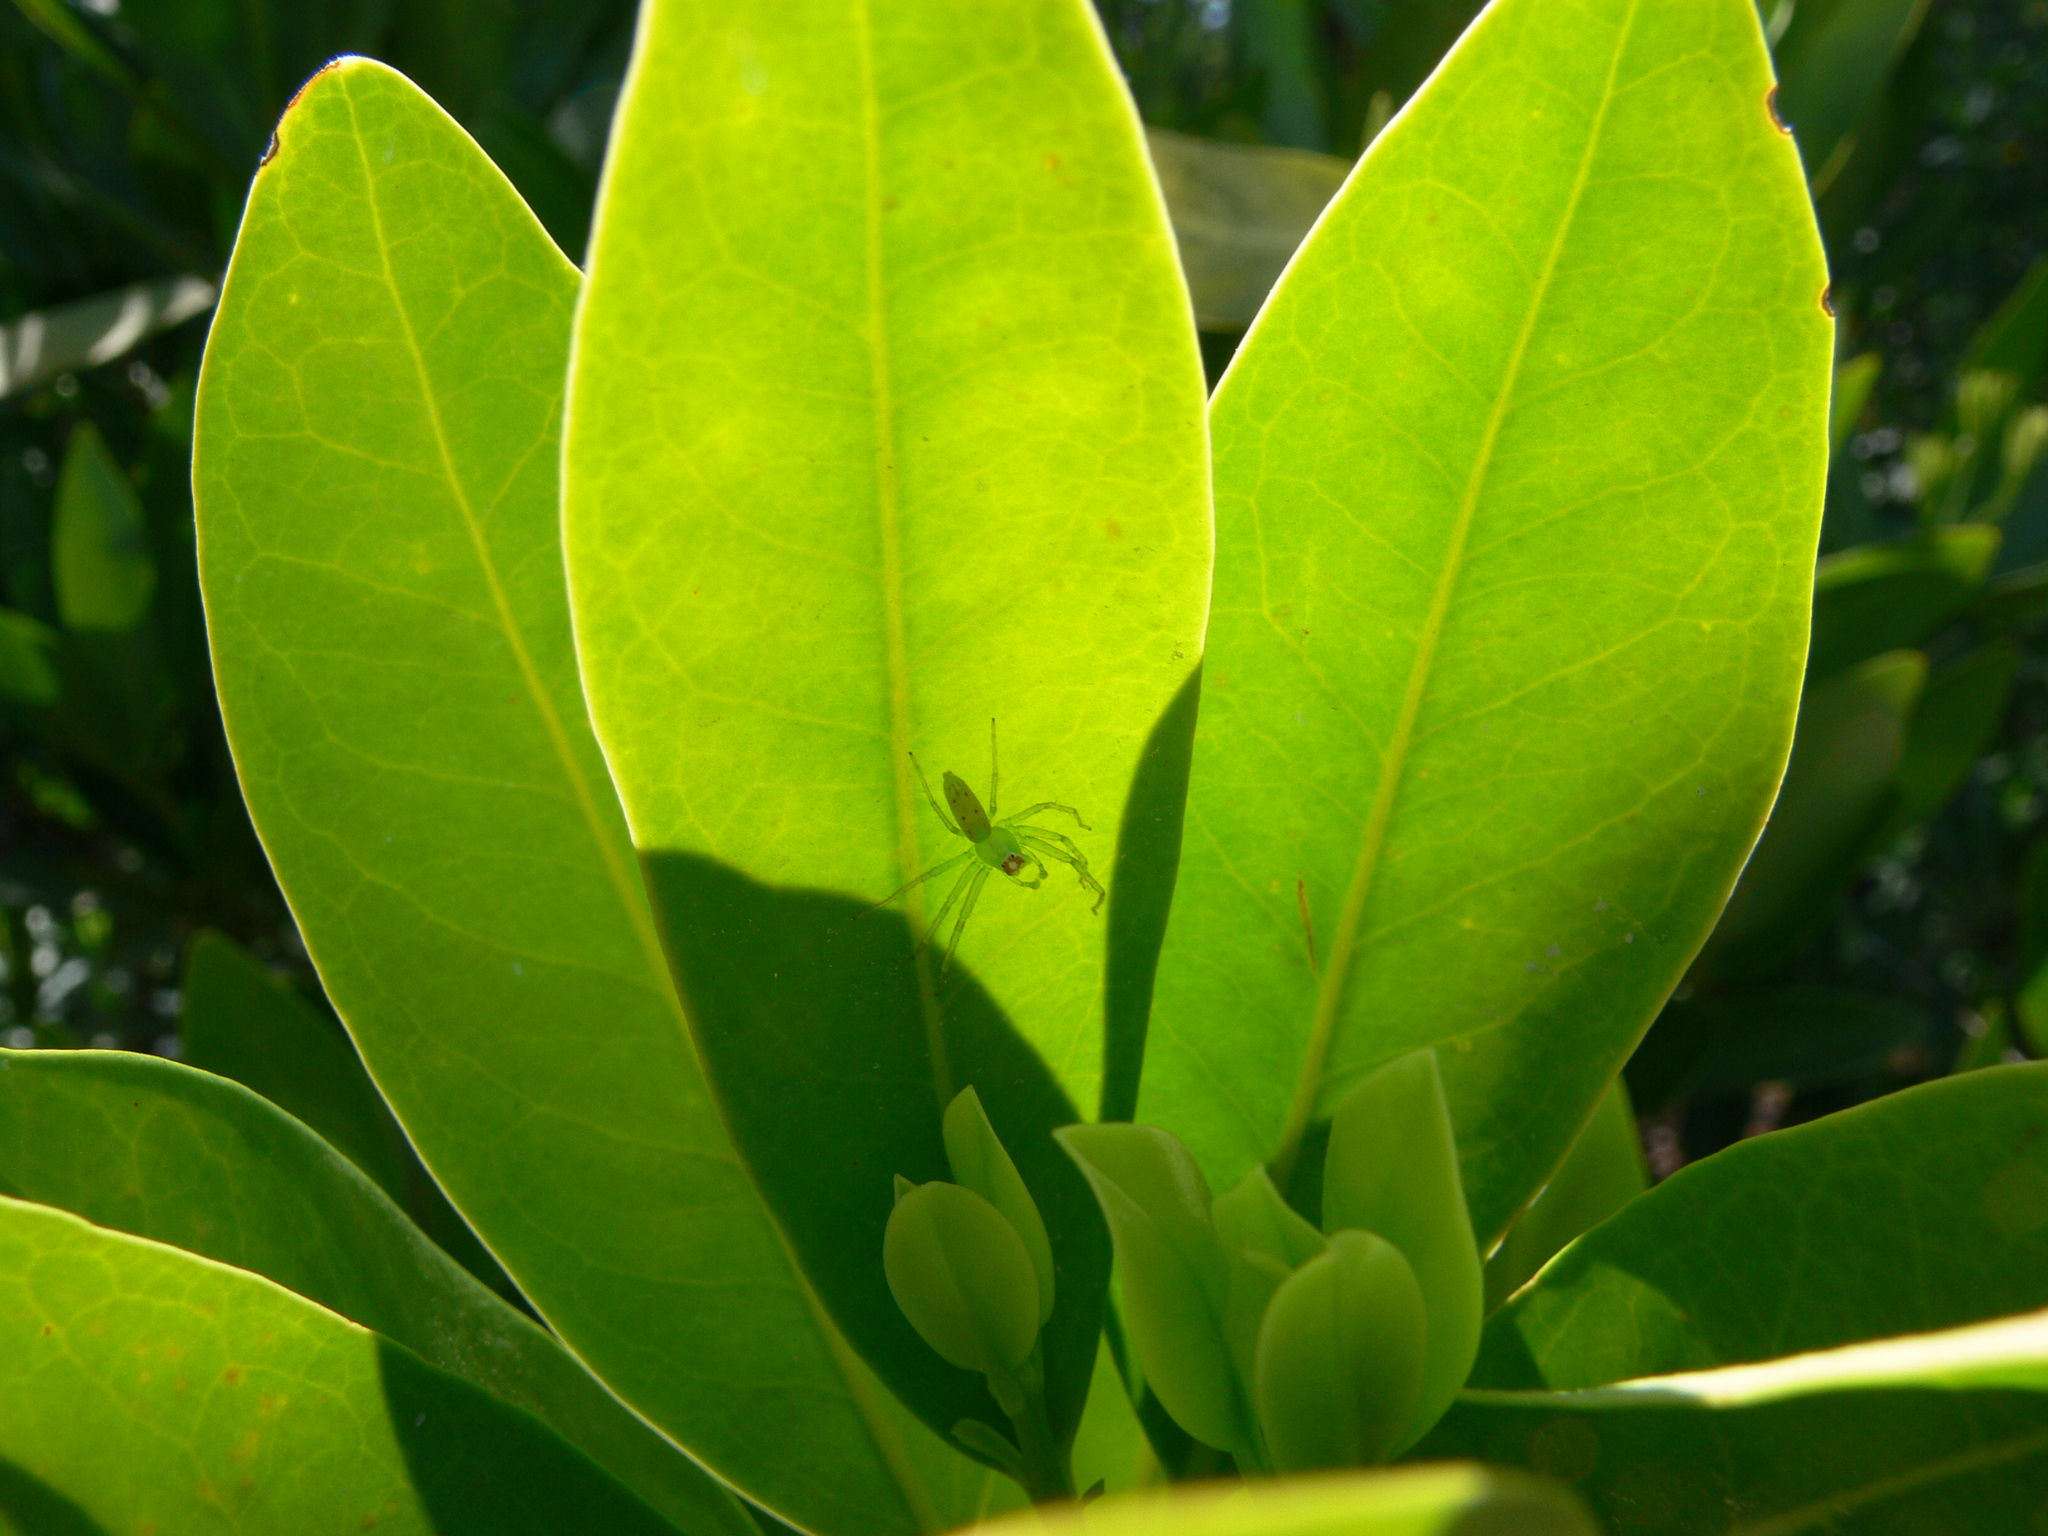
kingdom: Animalia
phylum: Arthropoda
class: Arachnida
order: Araneae
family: Salticidae
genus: Lyssomanes
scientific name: Lyssomanes viridis
